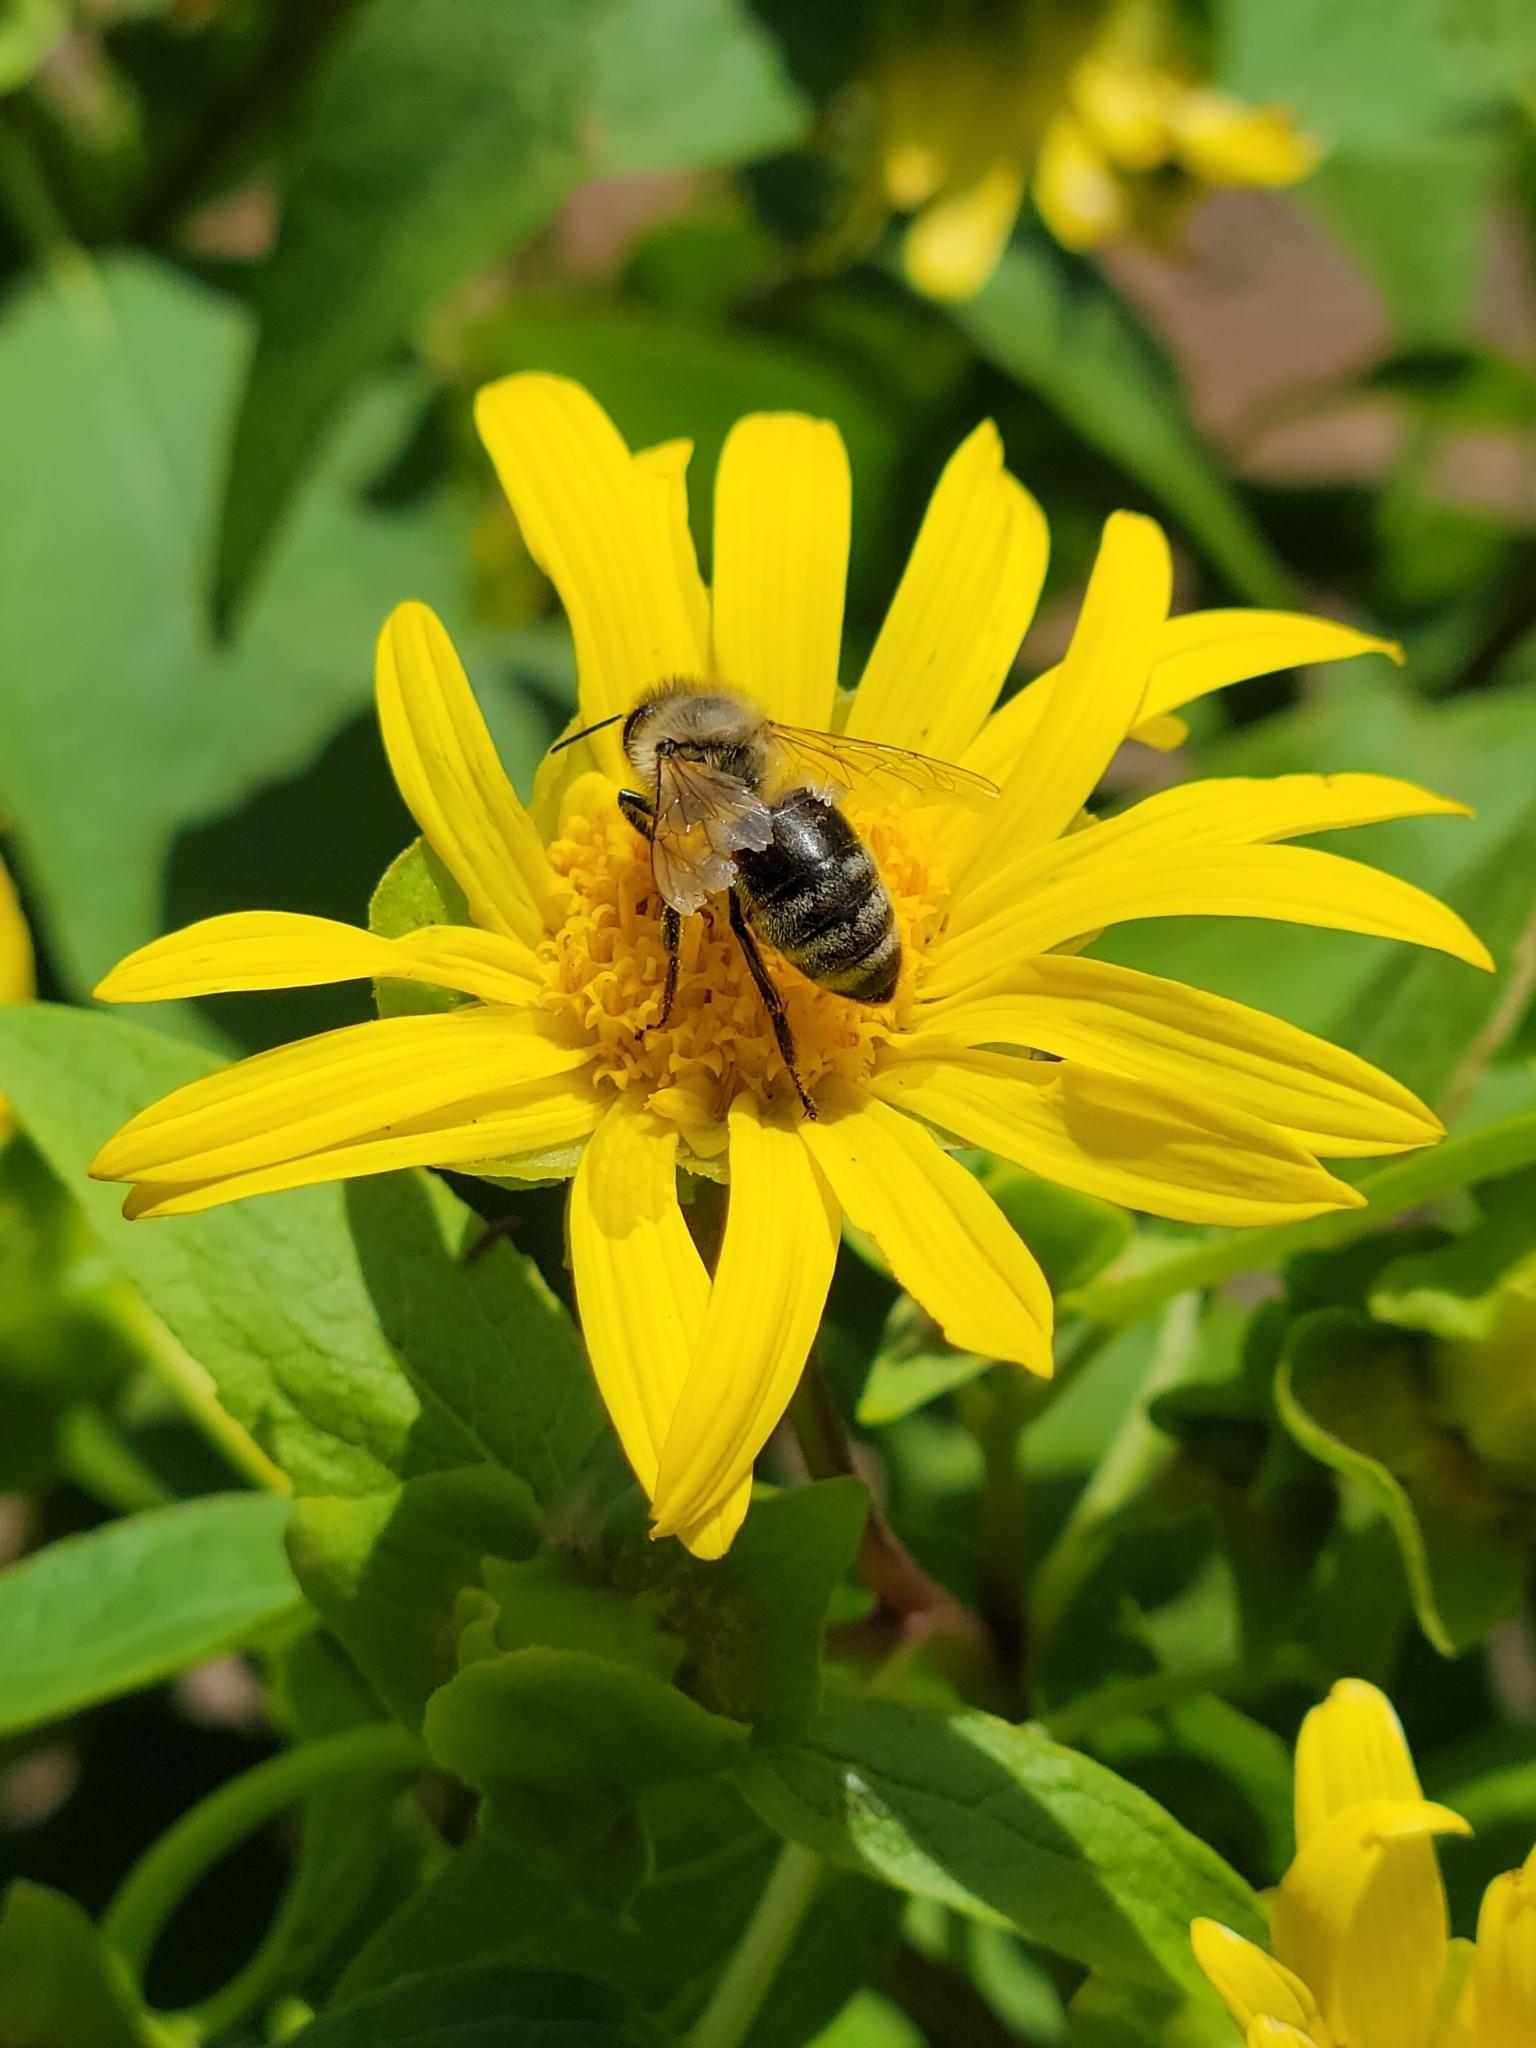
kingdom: Plantae
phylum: Tracheophyta
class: Magnoliopsida
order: Asterales
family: Asteraceae
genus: Venegasia
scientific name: Venegasia carpesioides
